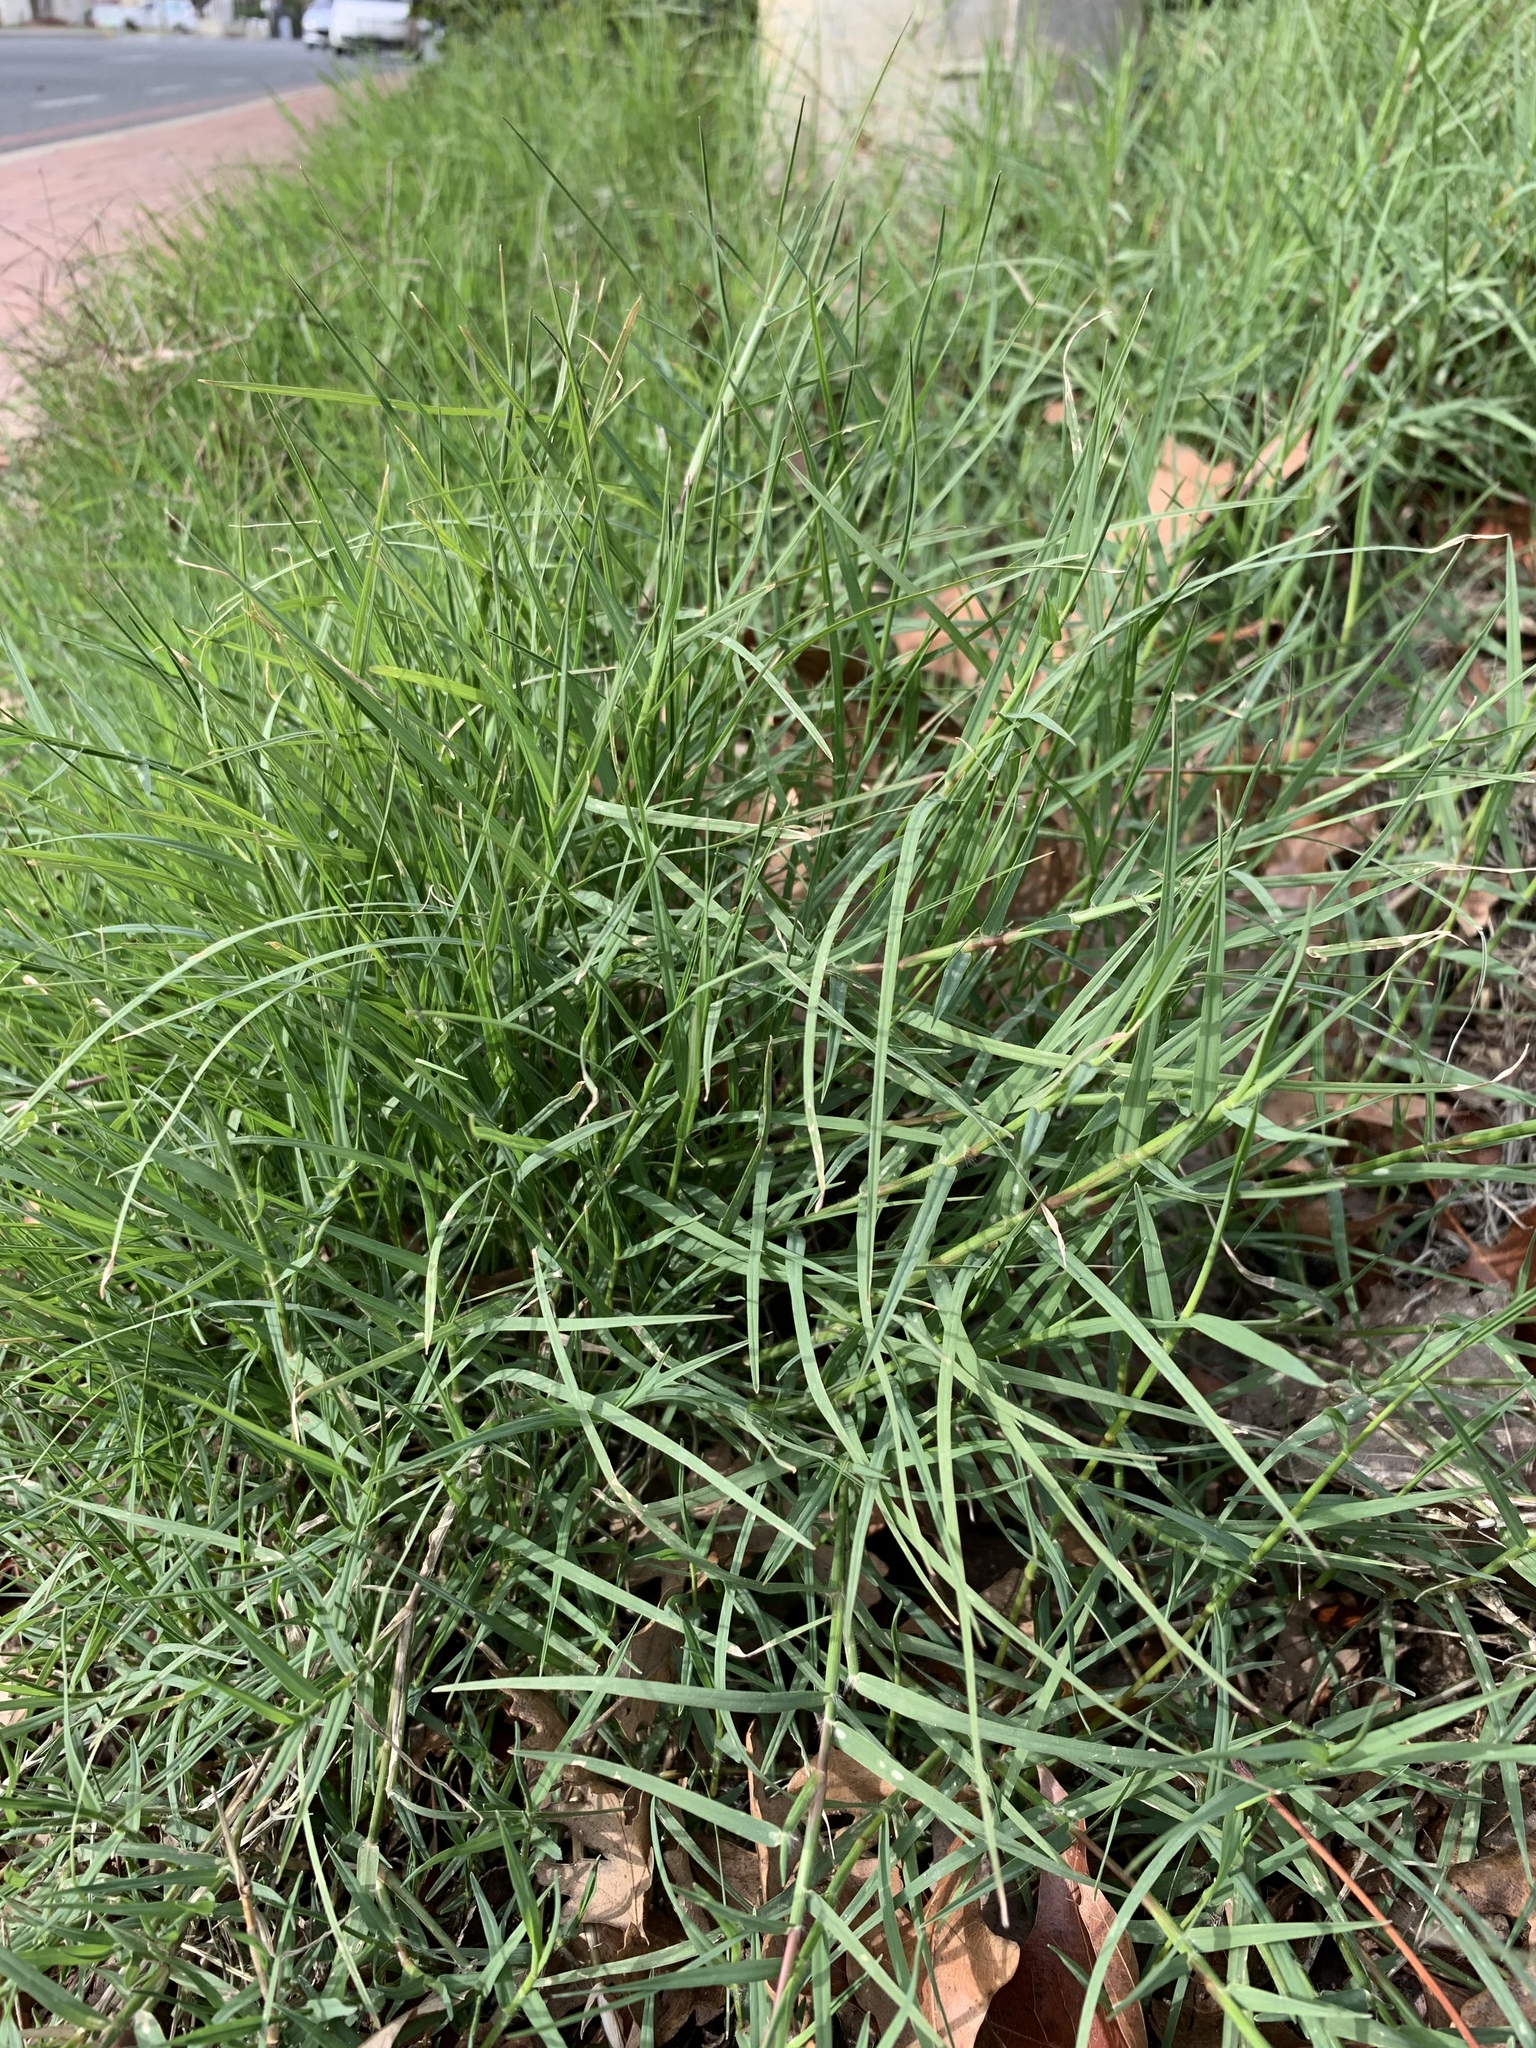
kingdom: Plantae
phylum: Tracheophyta
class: Liliopsida
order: Poales
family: Poaceae
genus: Cynodon
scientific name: Cynodon dactylon
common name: Bermuda grass
